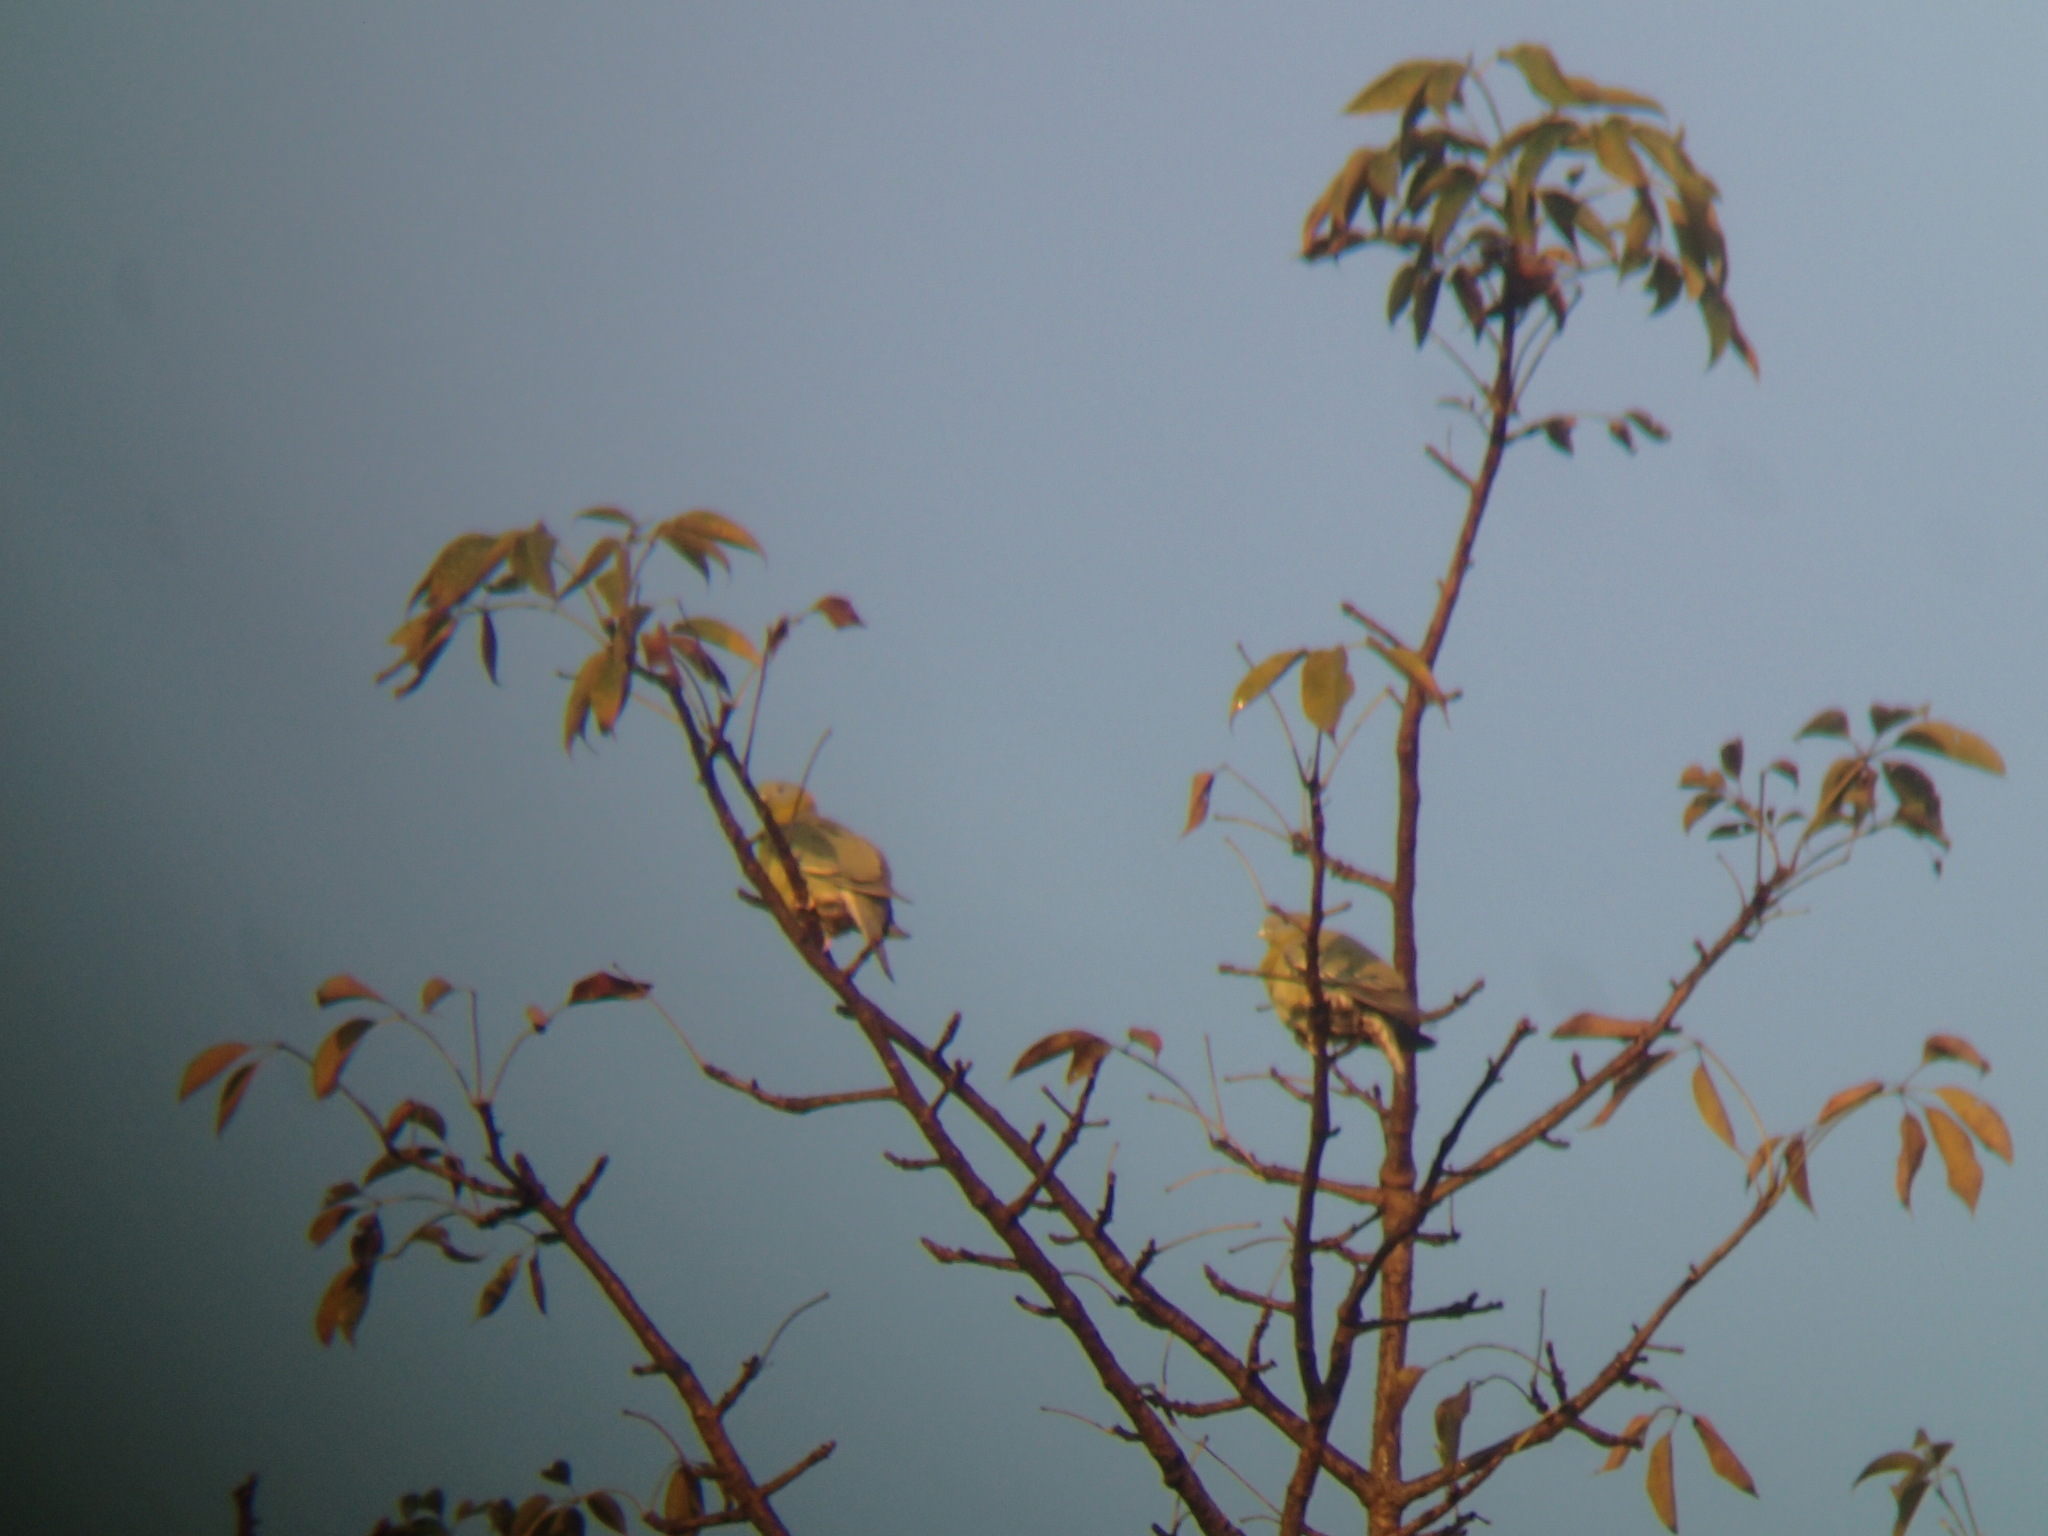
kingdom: Animalia
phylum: Chordata
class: Aves
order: Columbiformes
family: Columbidae
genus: Treron
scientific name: Treron phoenicopterus
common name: Yellow-footed green pigeon
